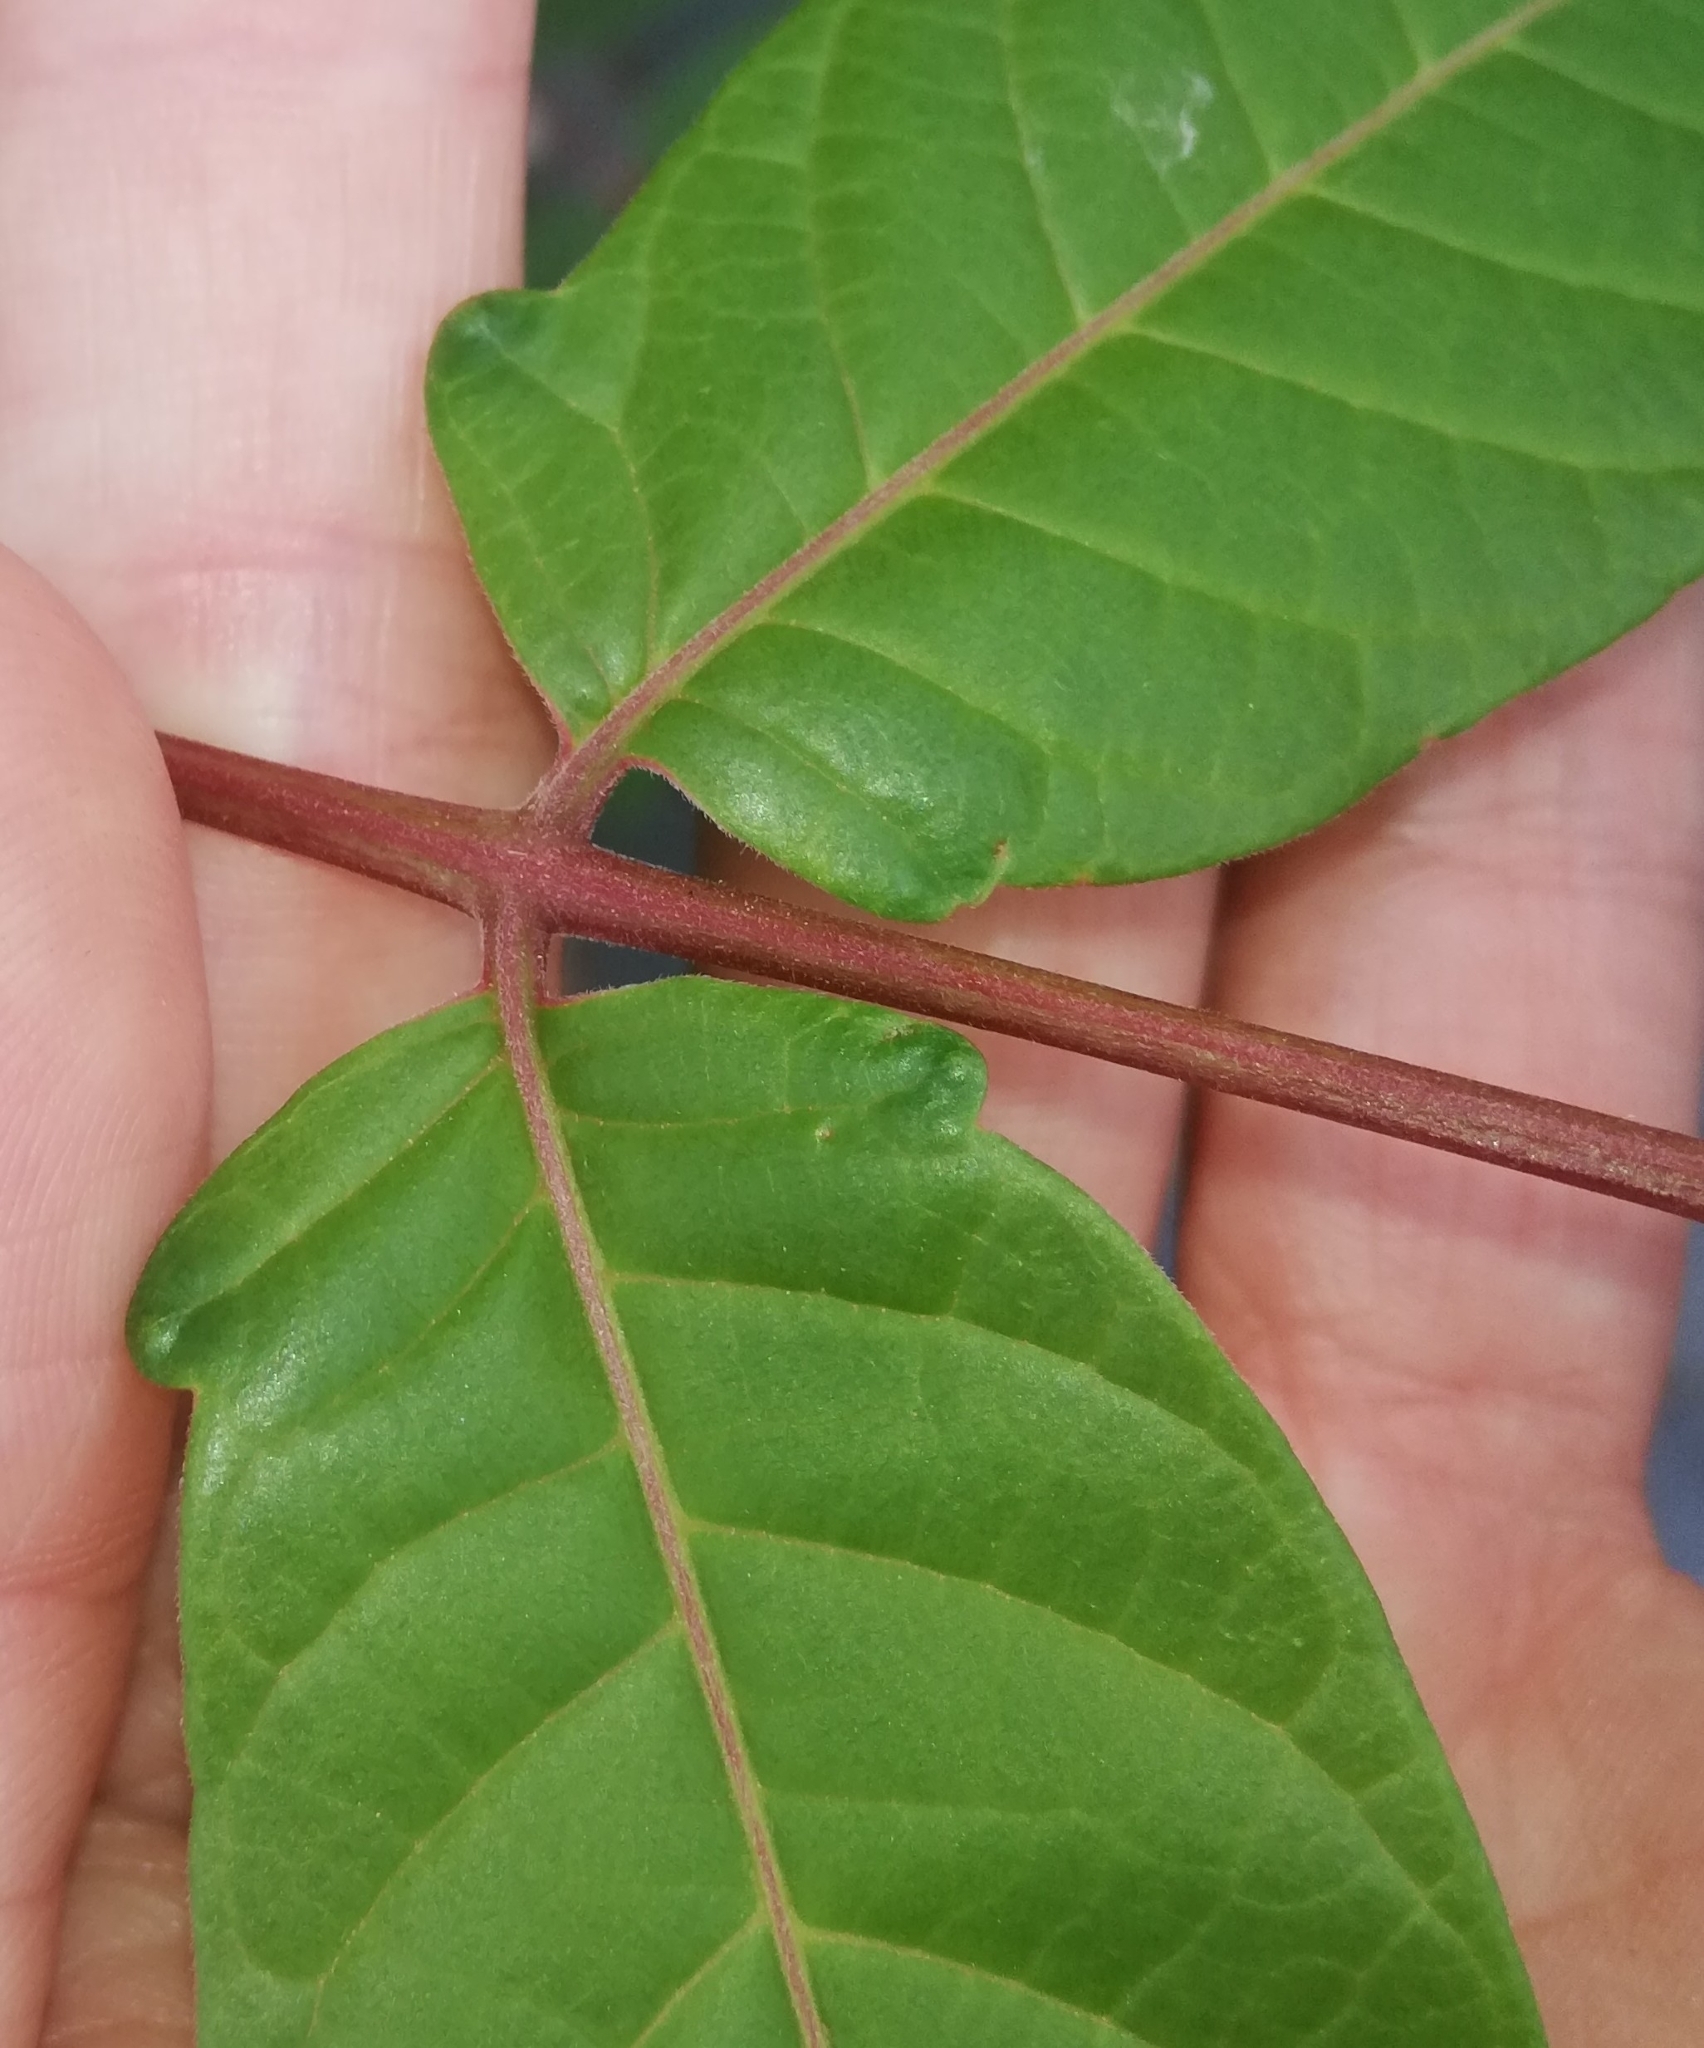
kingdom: Plantae
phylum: Tracheophyta
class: Magnoliopsida
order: Sapindales
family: Simaroubaceae
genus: Ailanthus
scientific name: Ailanthus altissima
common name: Tree-of-heaven
